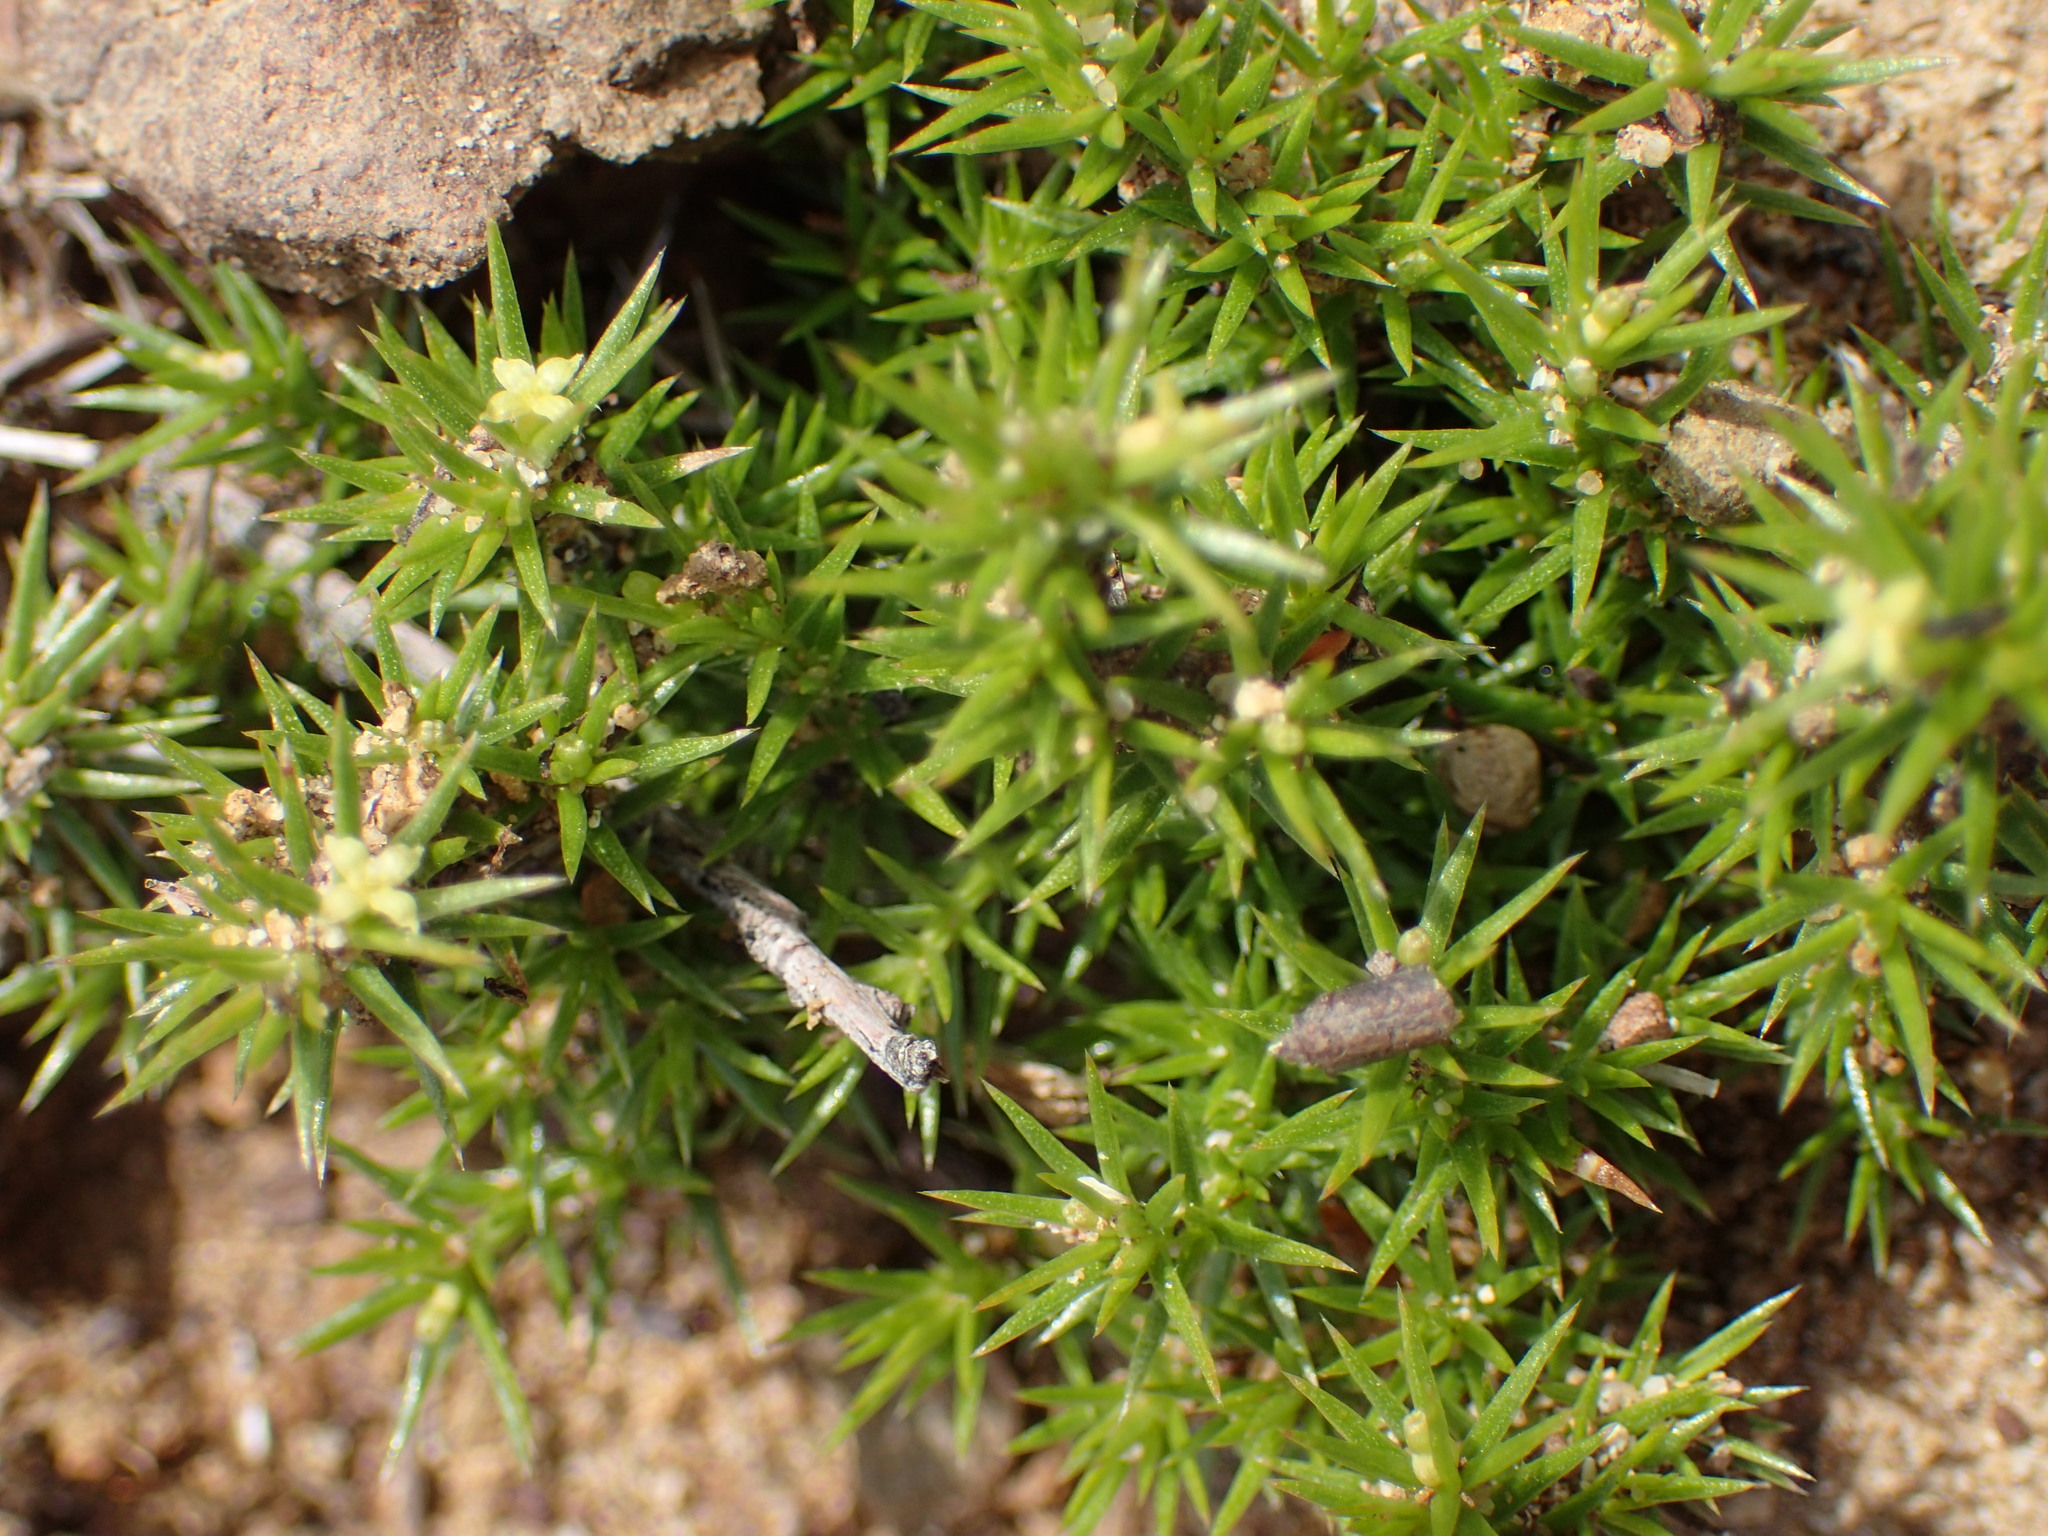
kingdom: Plantae
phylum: Tracheophyta
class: Magnoliopsida
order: Gentianales
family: Rubiaceae
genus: Galium
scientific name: Galium andrewsii
